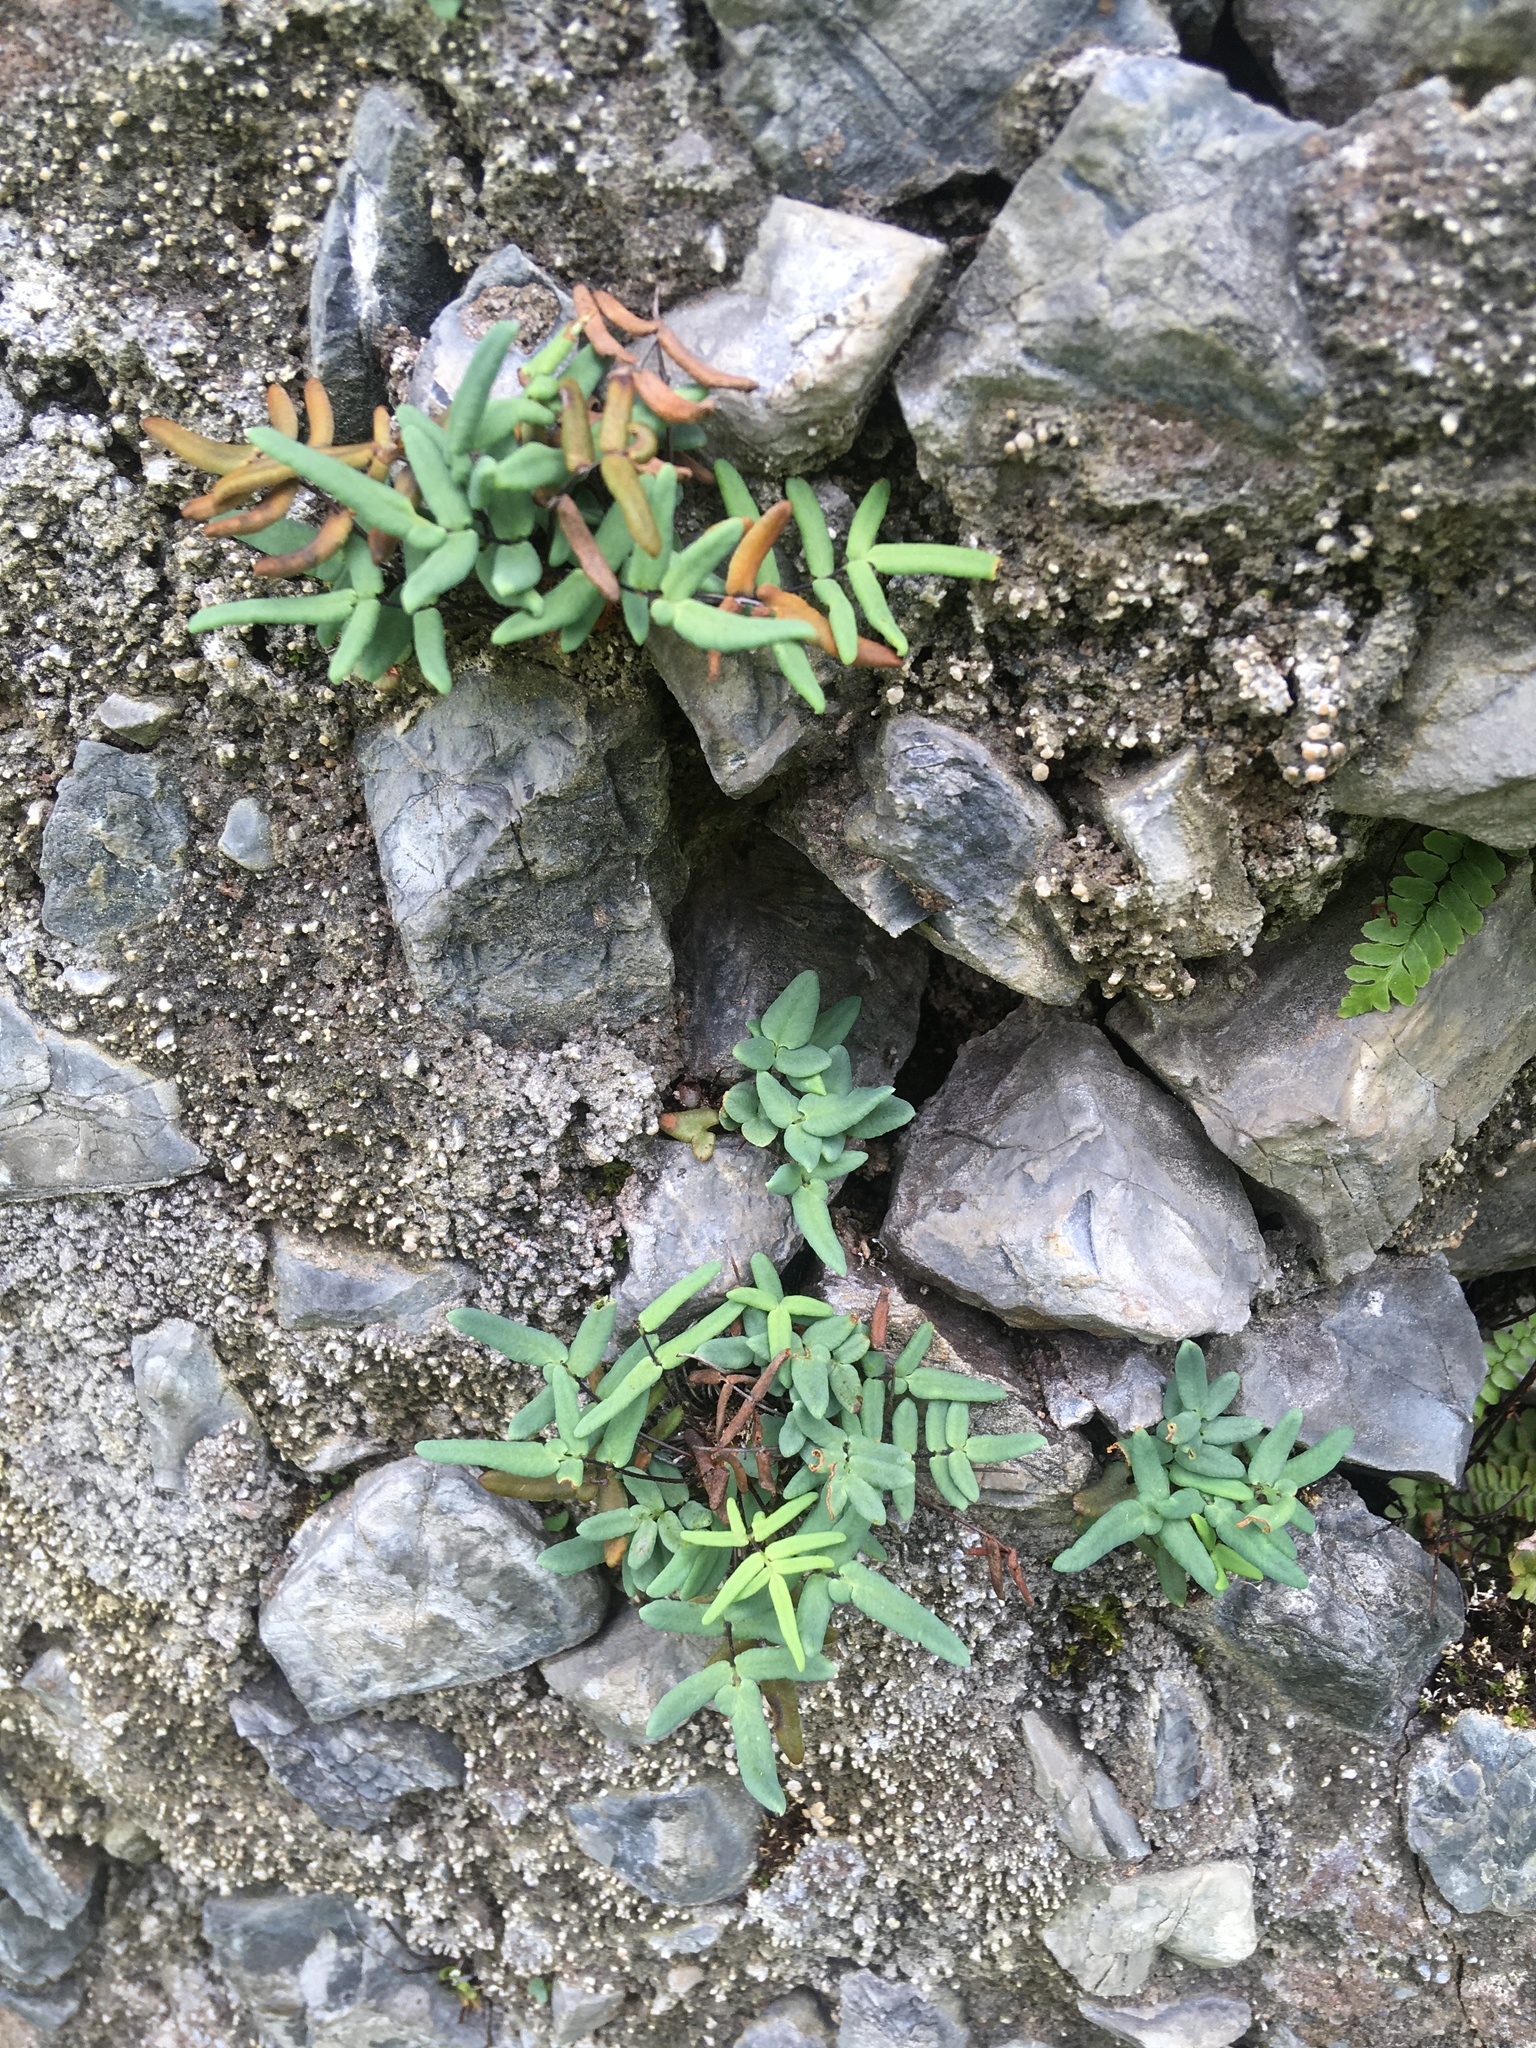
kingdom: Plantae
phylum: Tracheophyta
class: Polypodiopsida
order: Polypodiales
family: Pteridaceae
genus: Pellaea
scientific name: Pellaea glabella
